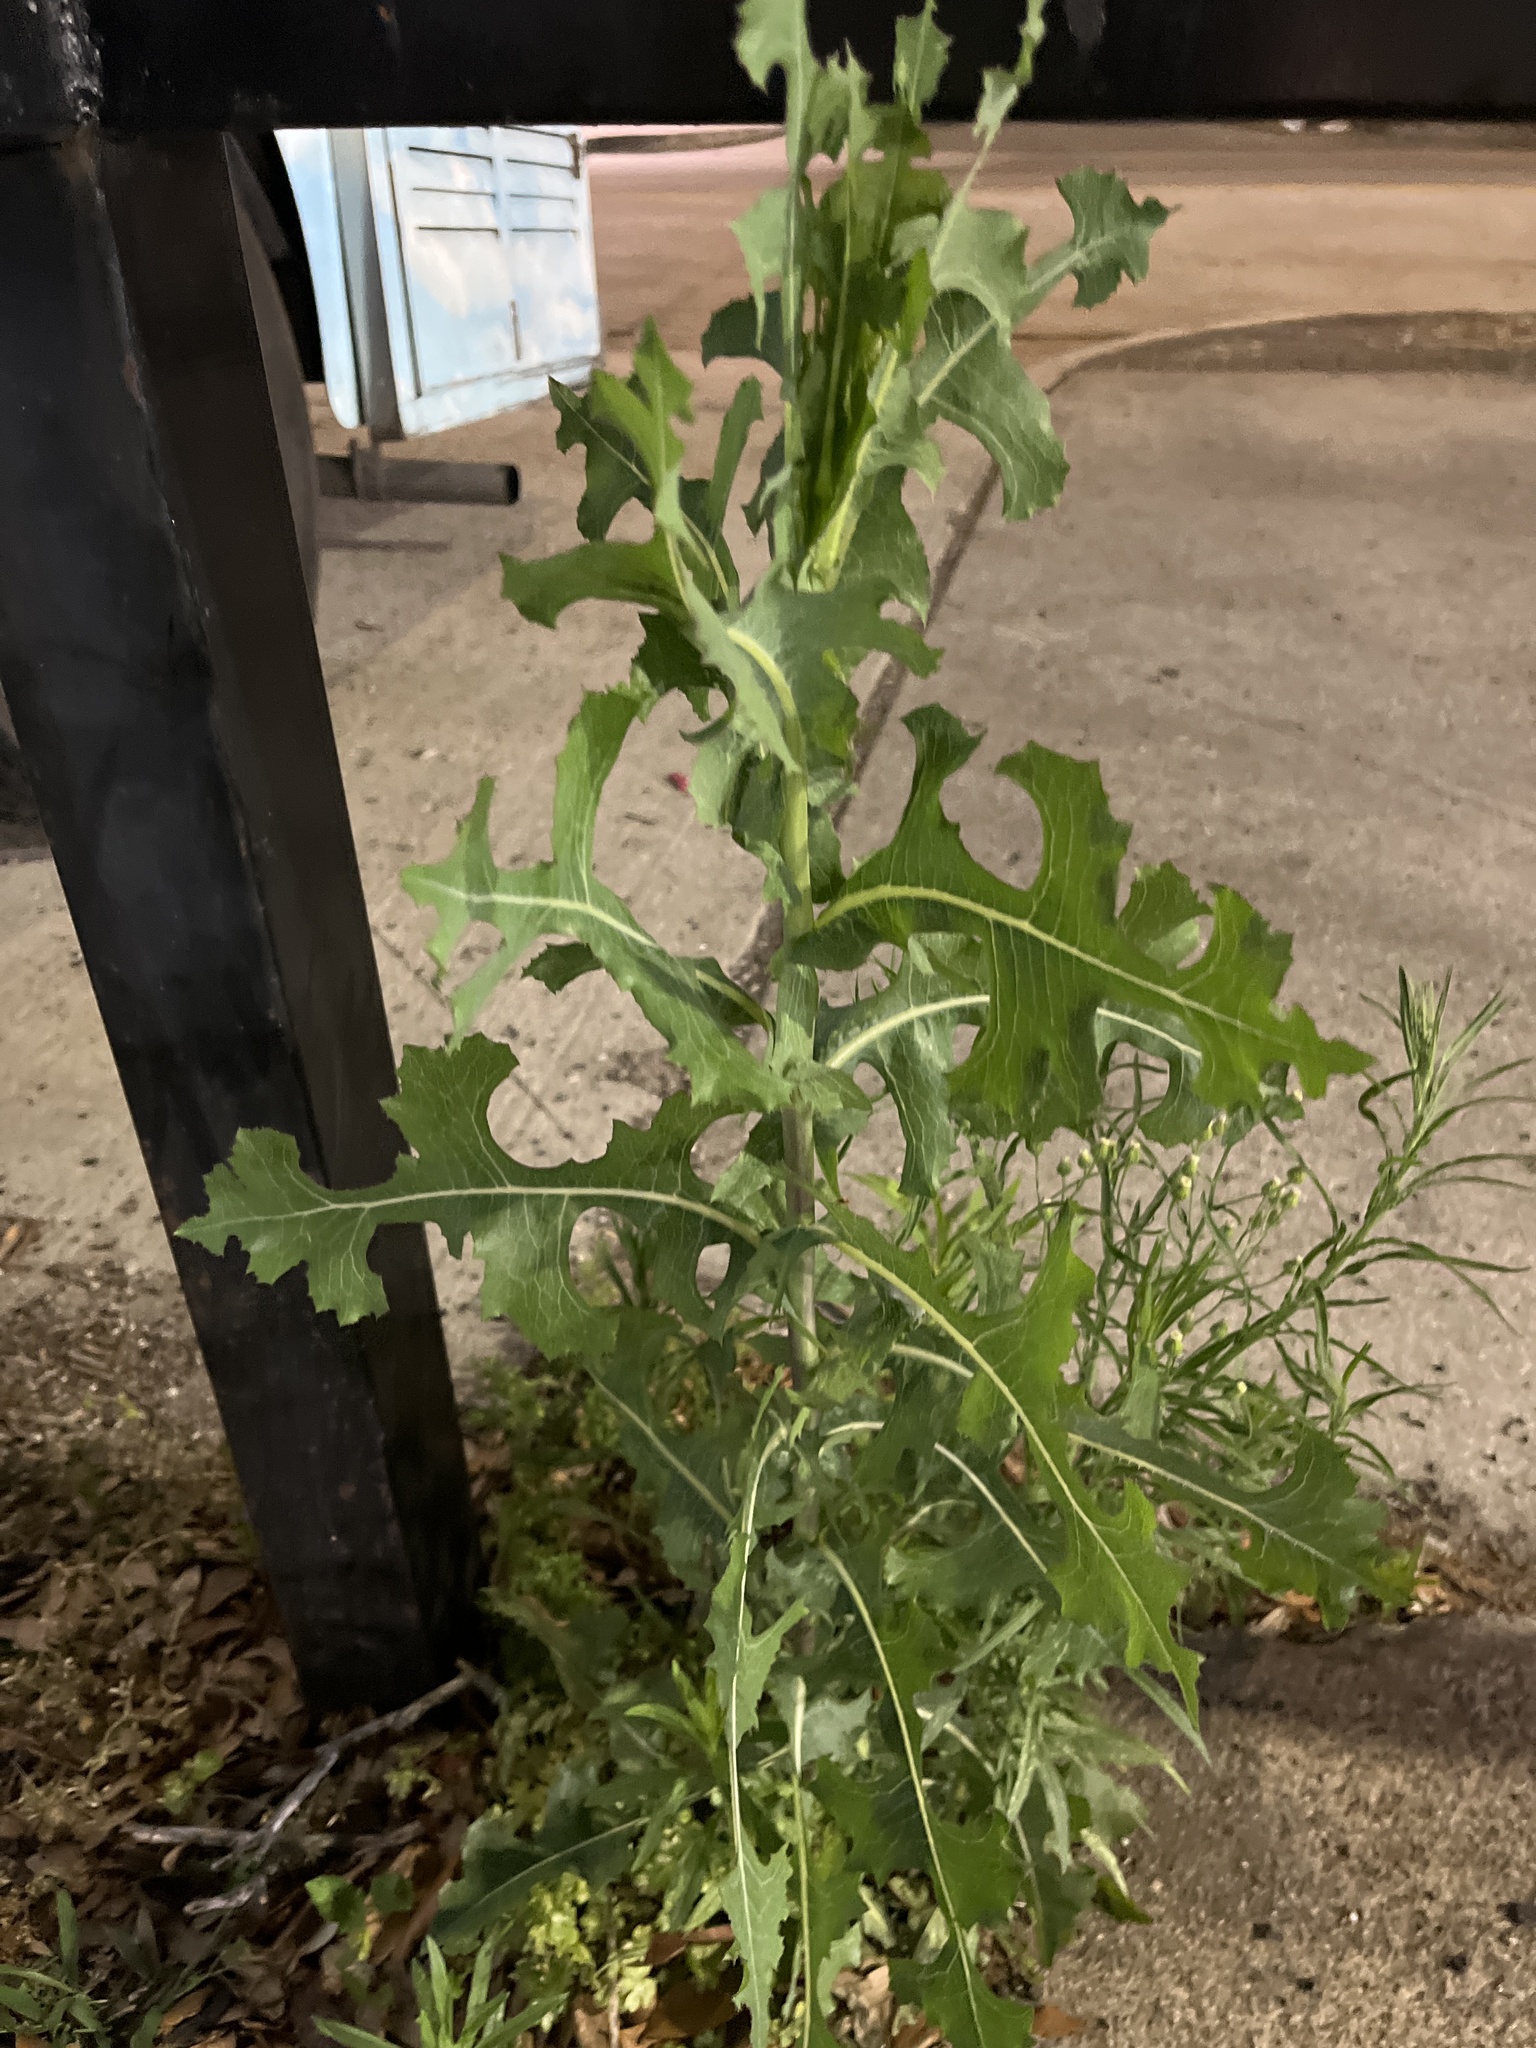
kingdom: Plantae
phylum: Tracheophyta
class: Magnoliopsida
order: Asterales
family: Asteraceae
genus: Lactuca
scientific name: Lactuca serriola
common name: Prickly lettuce
